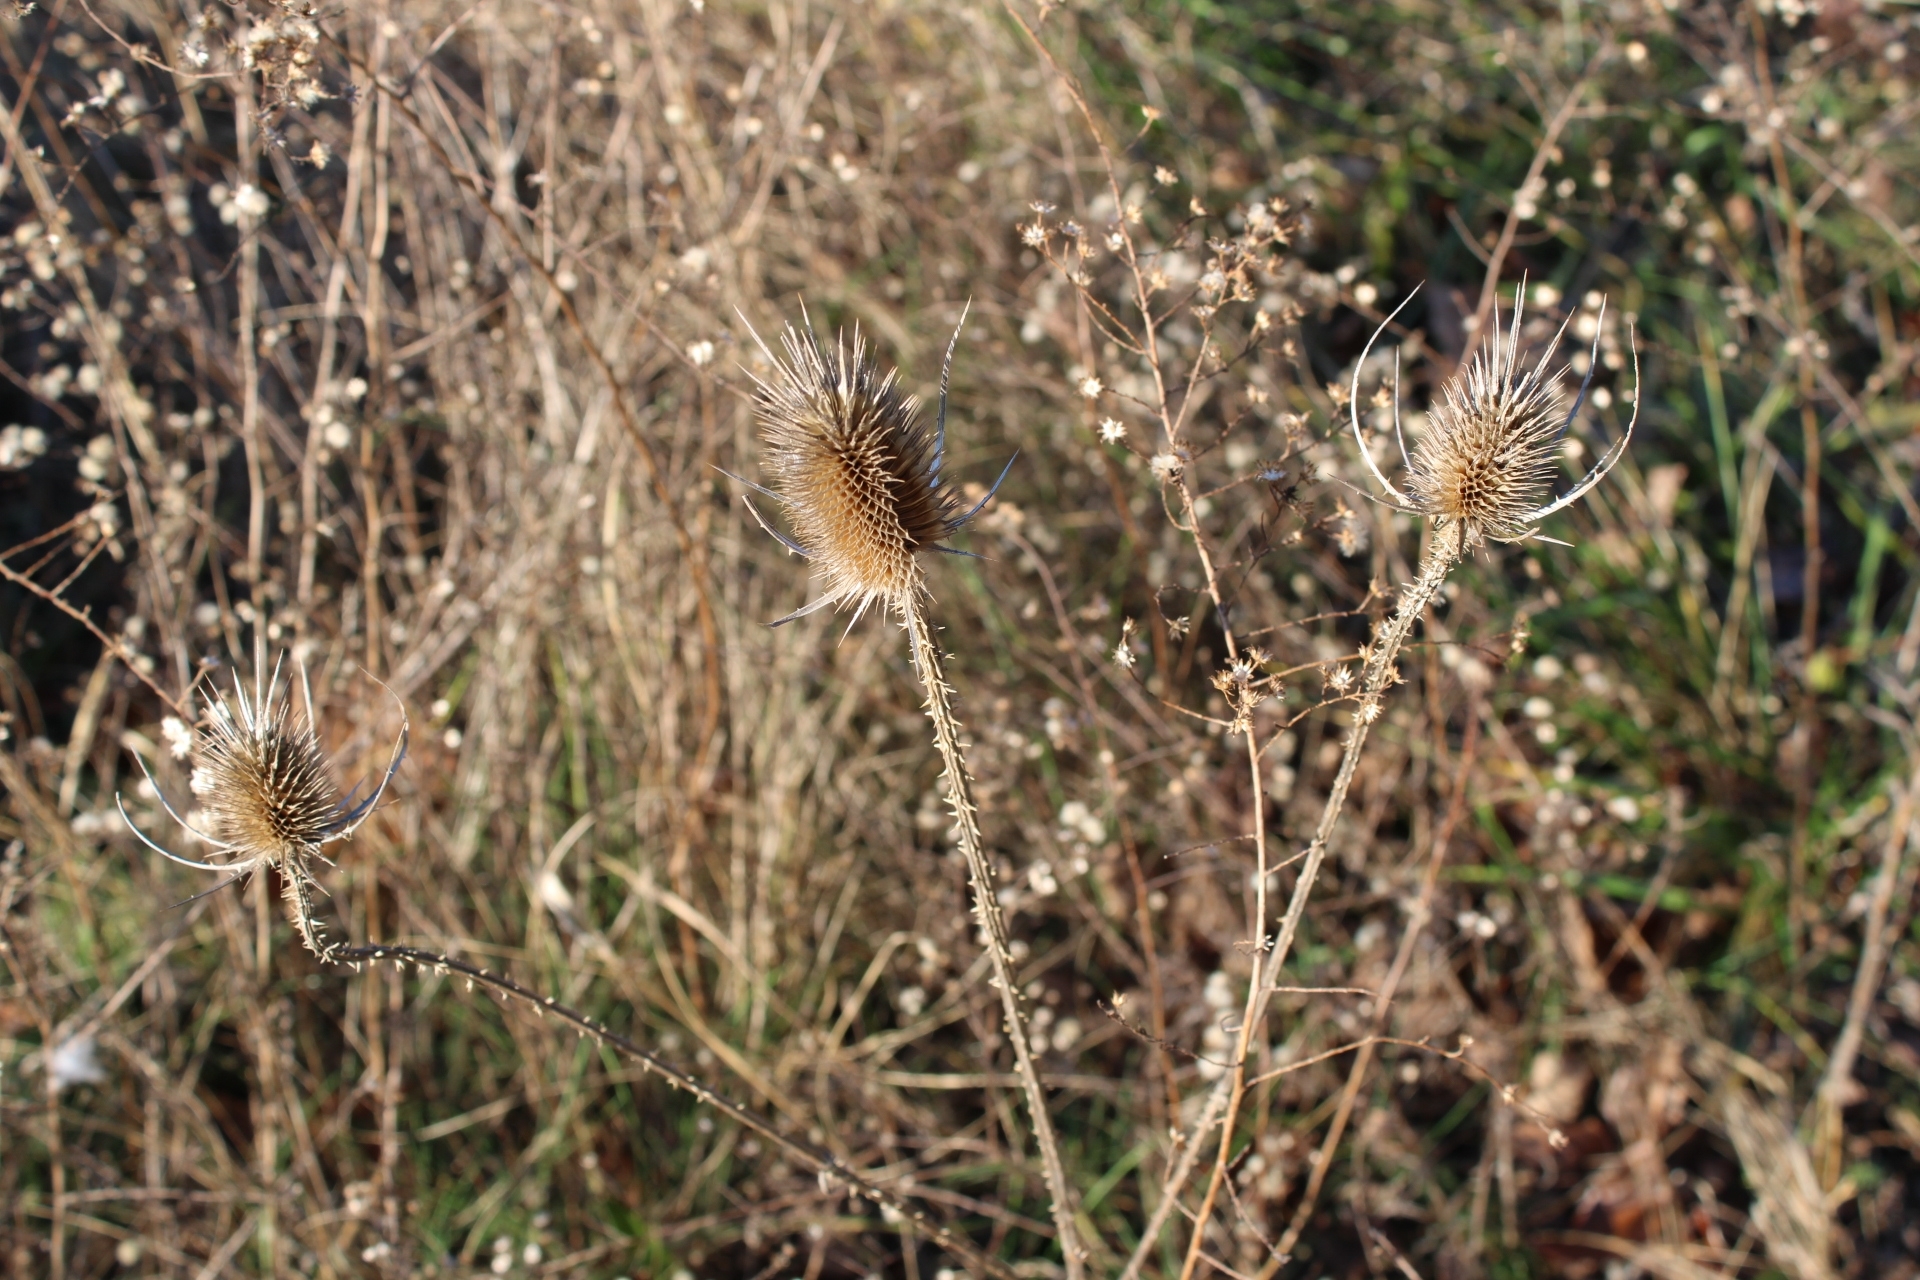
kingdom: Plantae
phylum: Tracheophyta
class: Magnoliopsida
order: Dipsacales
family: Caprifoliaceae
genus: Dipsacus
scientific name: Dipsacus fullonum
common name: Teasel
